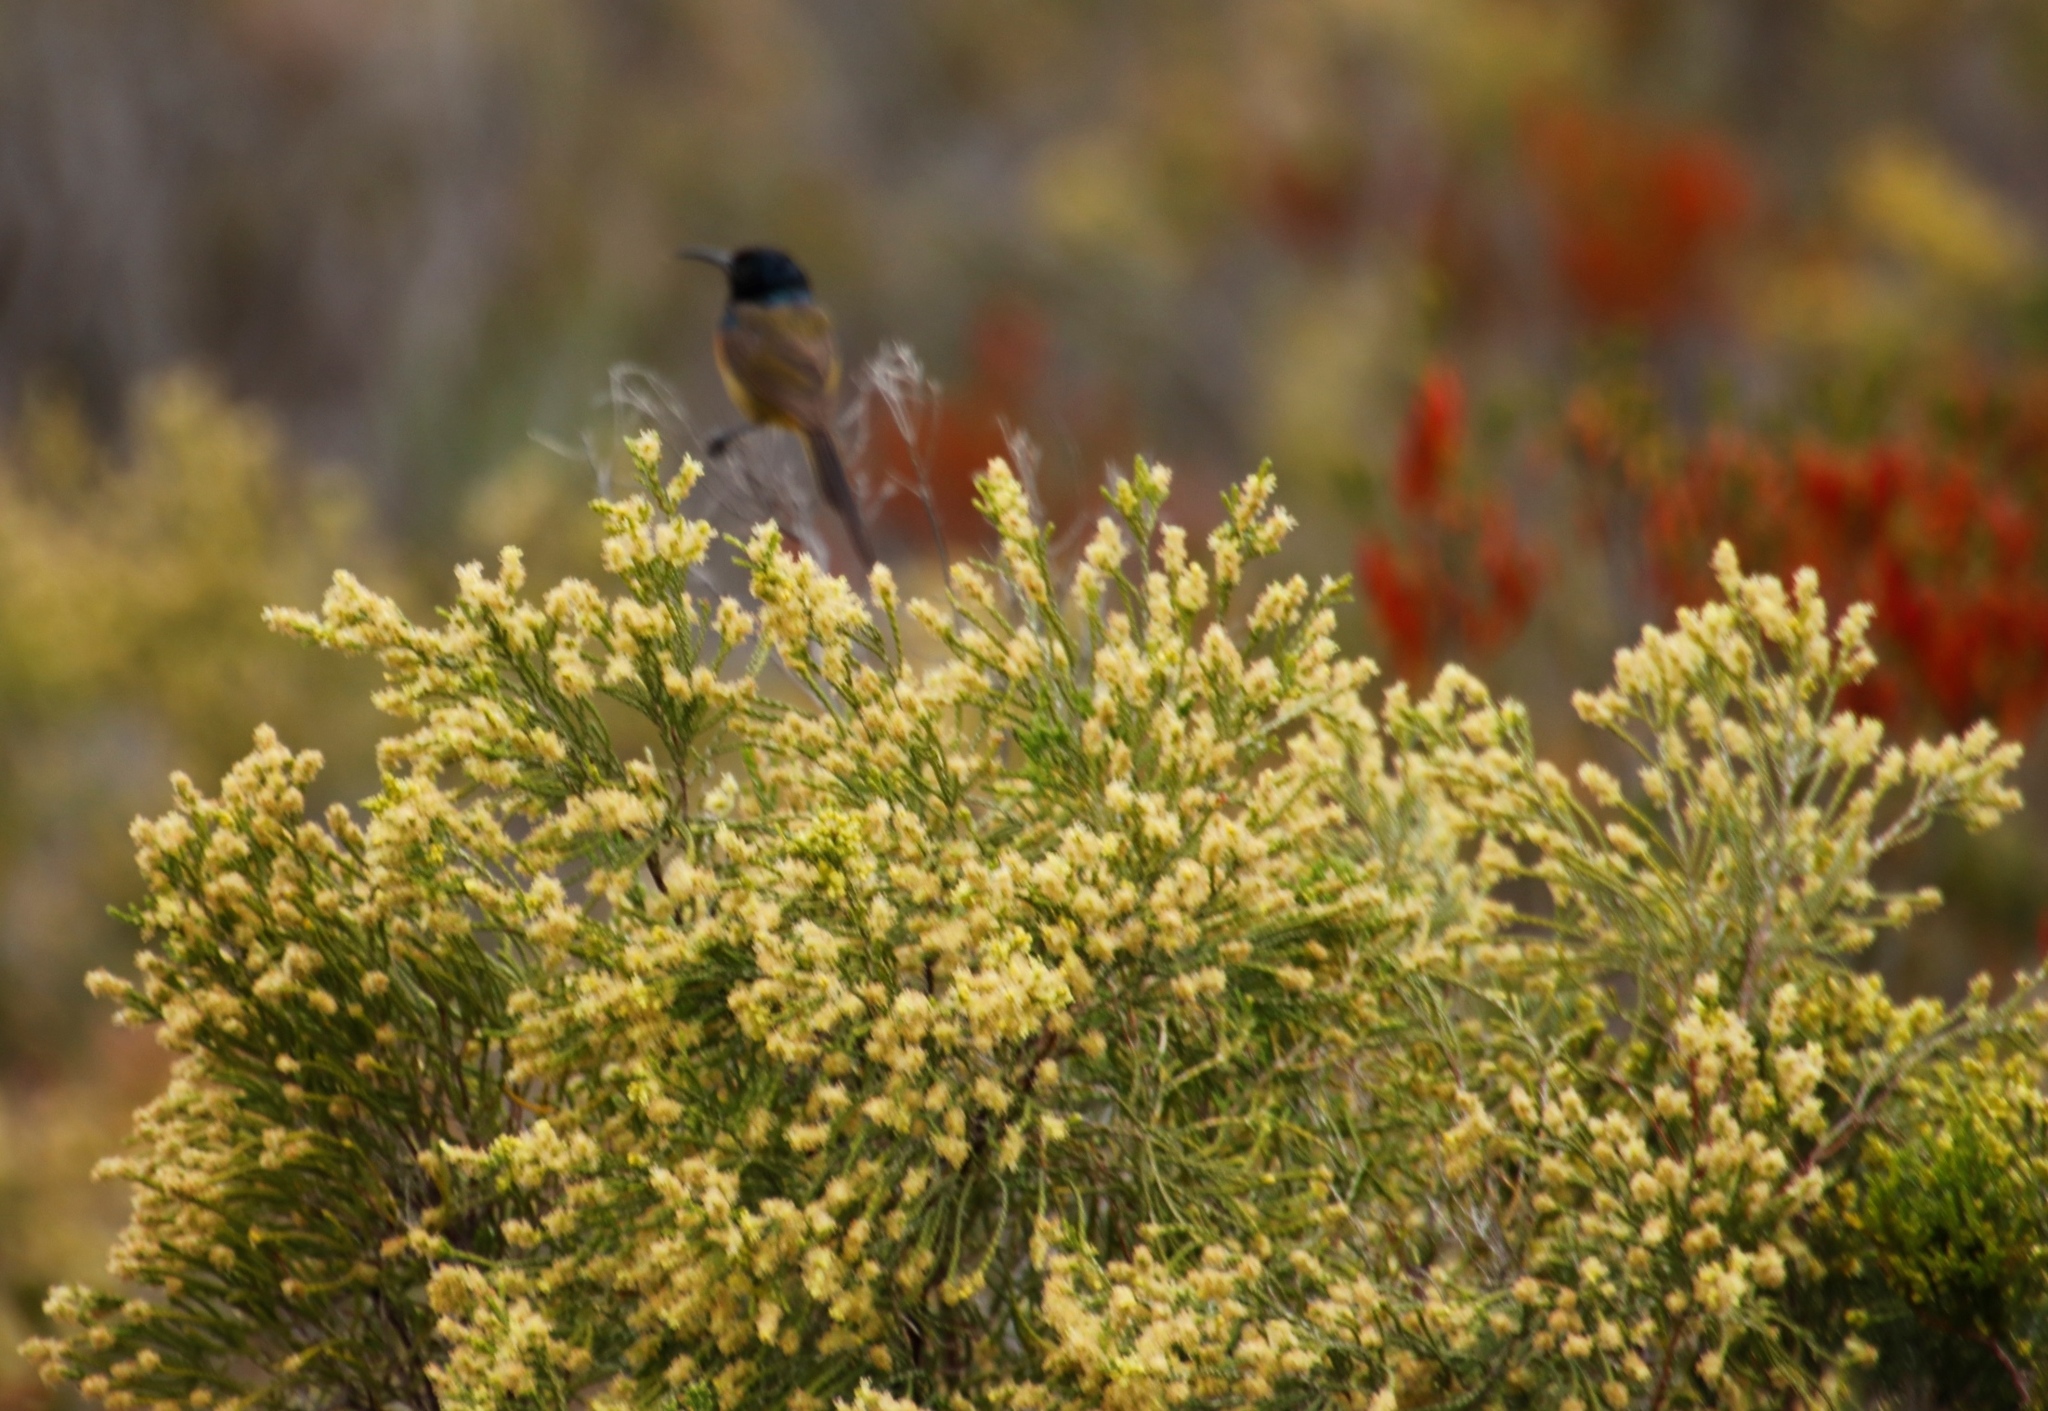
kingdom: Animalia
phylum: Chordata
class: Aves
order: Passeriformes
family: Nectariniidae
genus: Anthobaphes
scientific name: Anthobaphes violacea
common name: Orange-breasted sunbird
